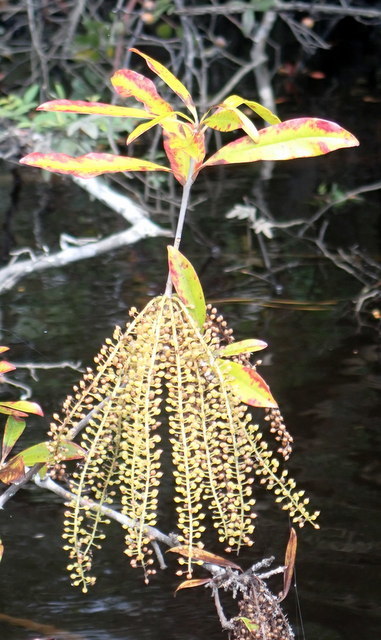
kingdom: Plantae
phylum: Tracheophyta
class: Magnoliopsida
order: Ericales
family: Cyrillaceae
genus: Cyrilla
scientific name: Cyrilla racemiflora
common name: Black titi
